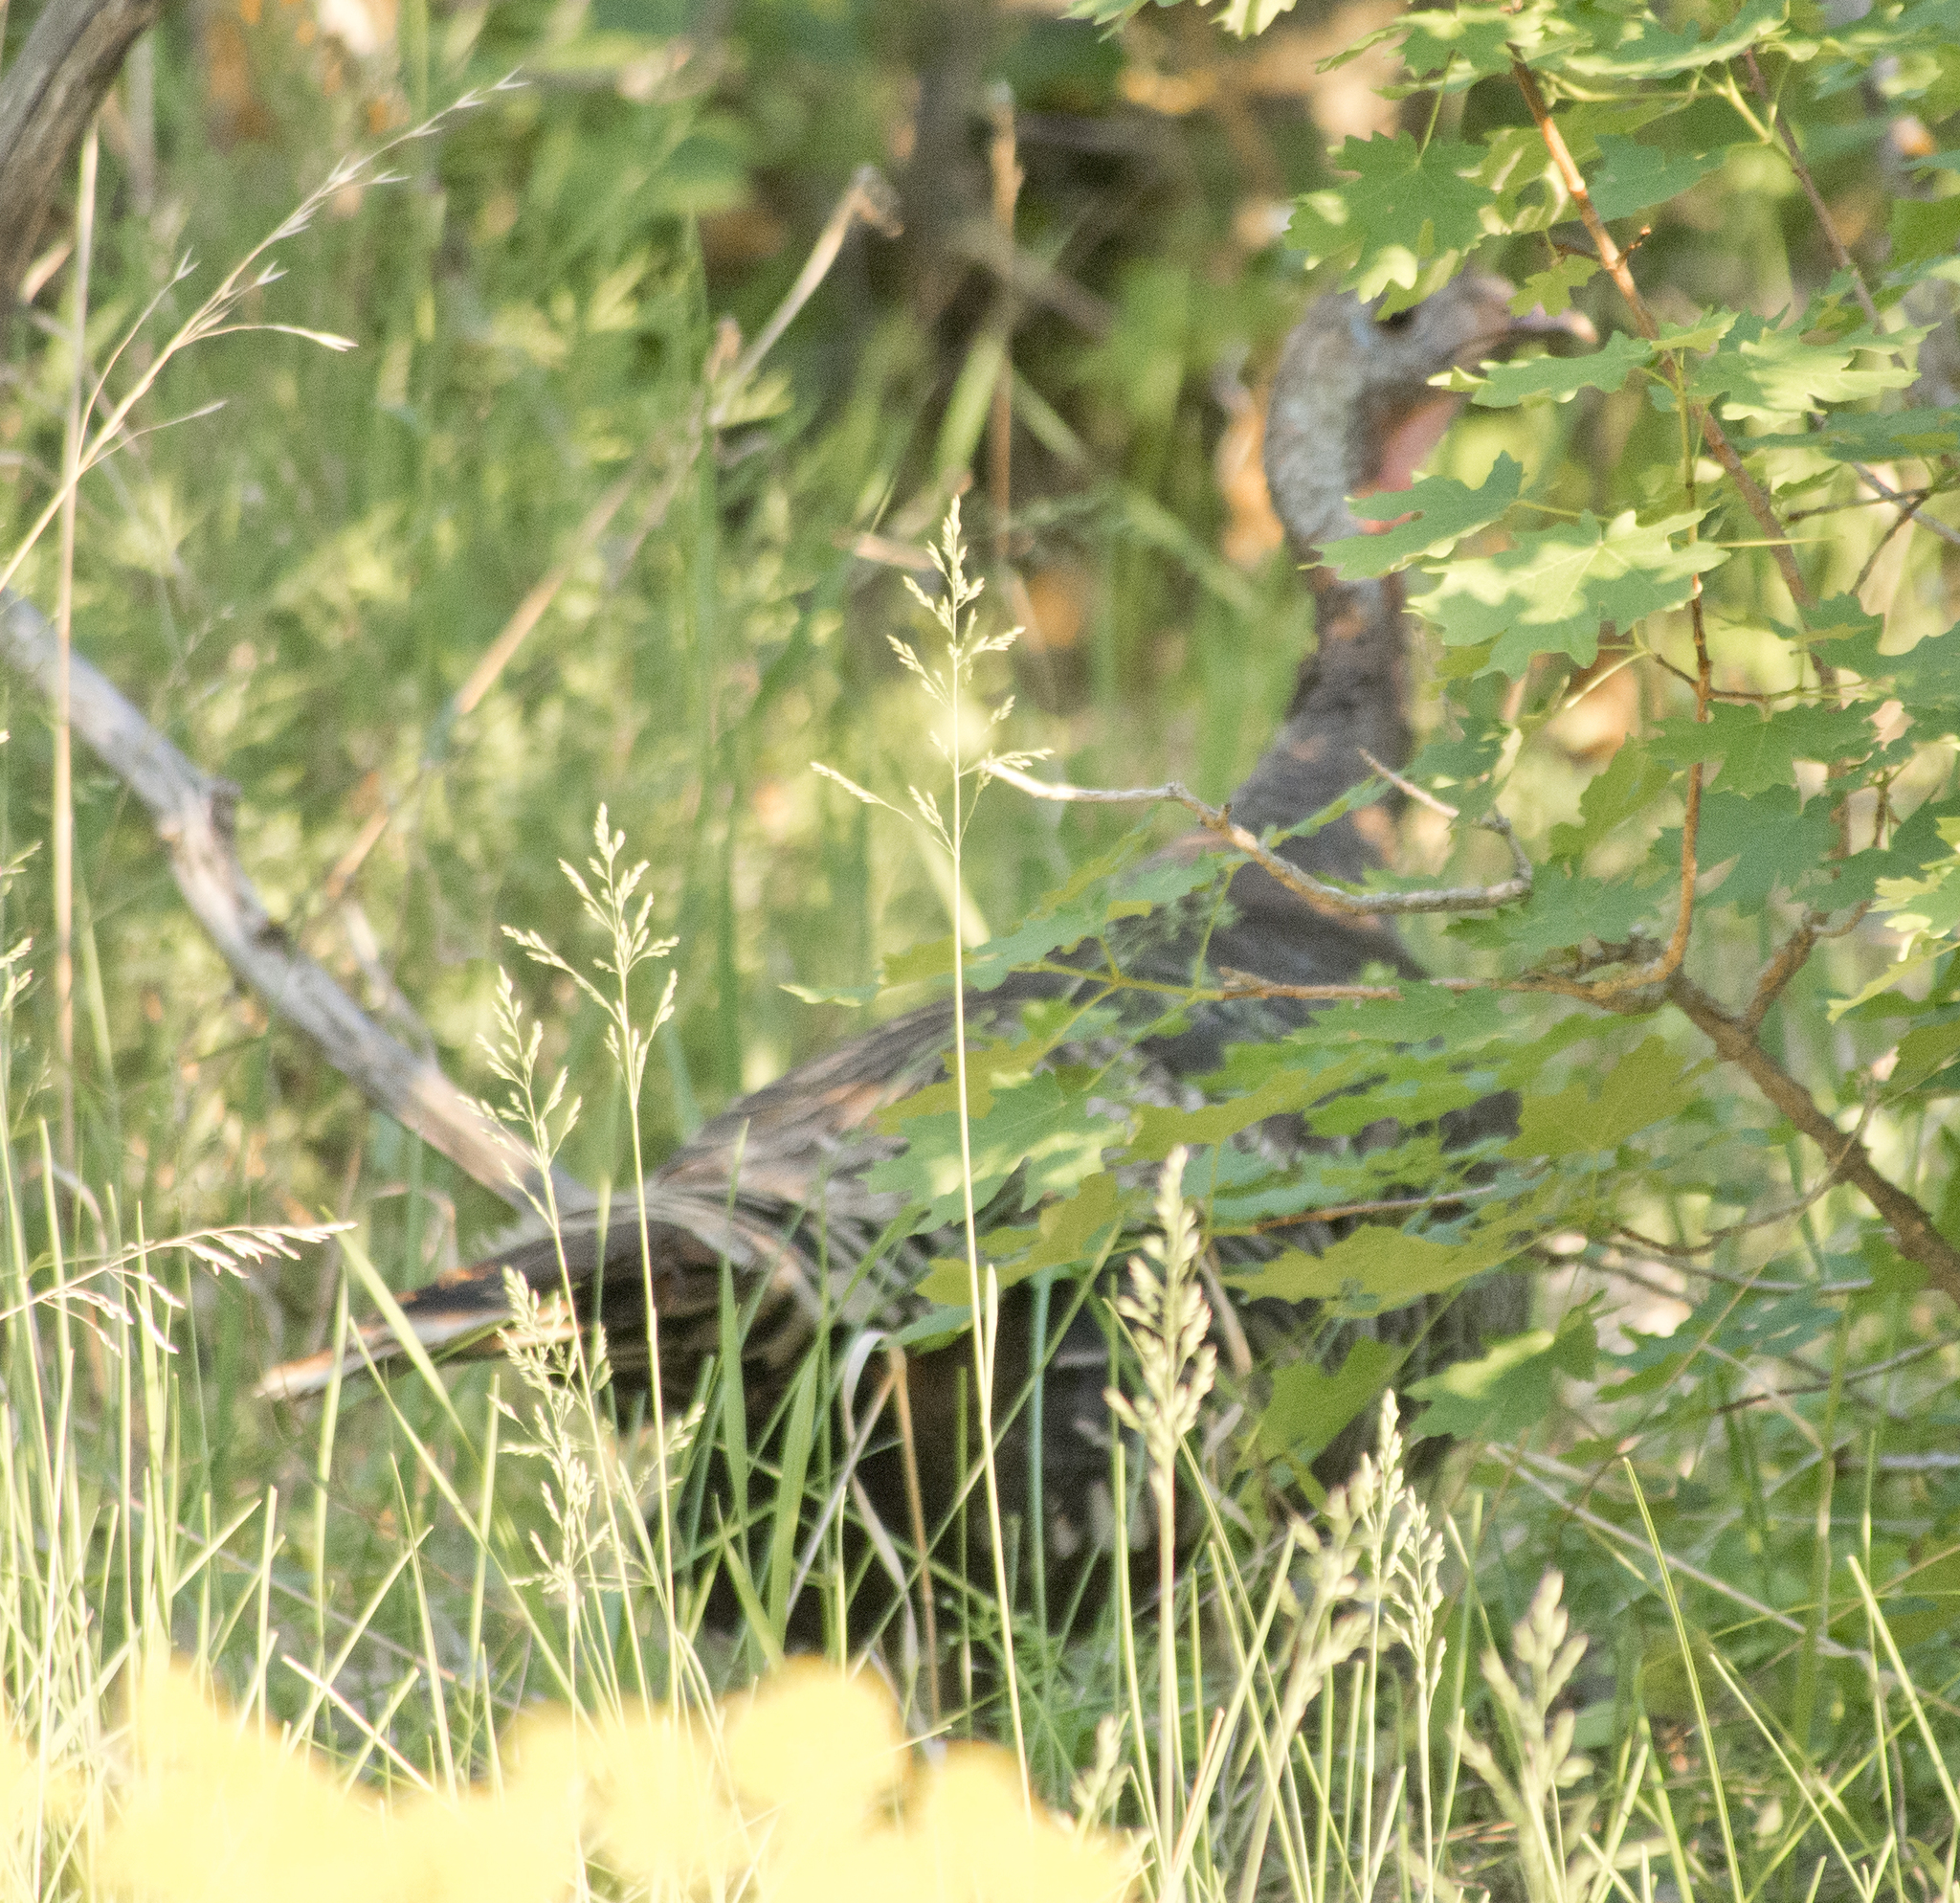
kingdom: Animalia
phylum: Chordata
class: Aves
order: Galliformes
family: Phasianidae
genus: Meleagris
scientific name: Meleagris gallopavo
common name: Wild turkey
